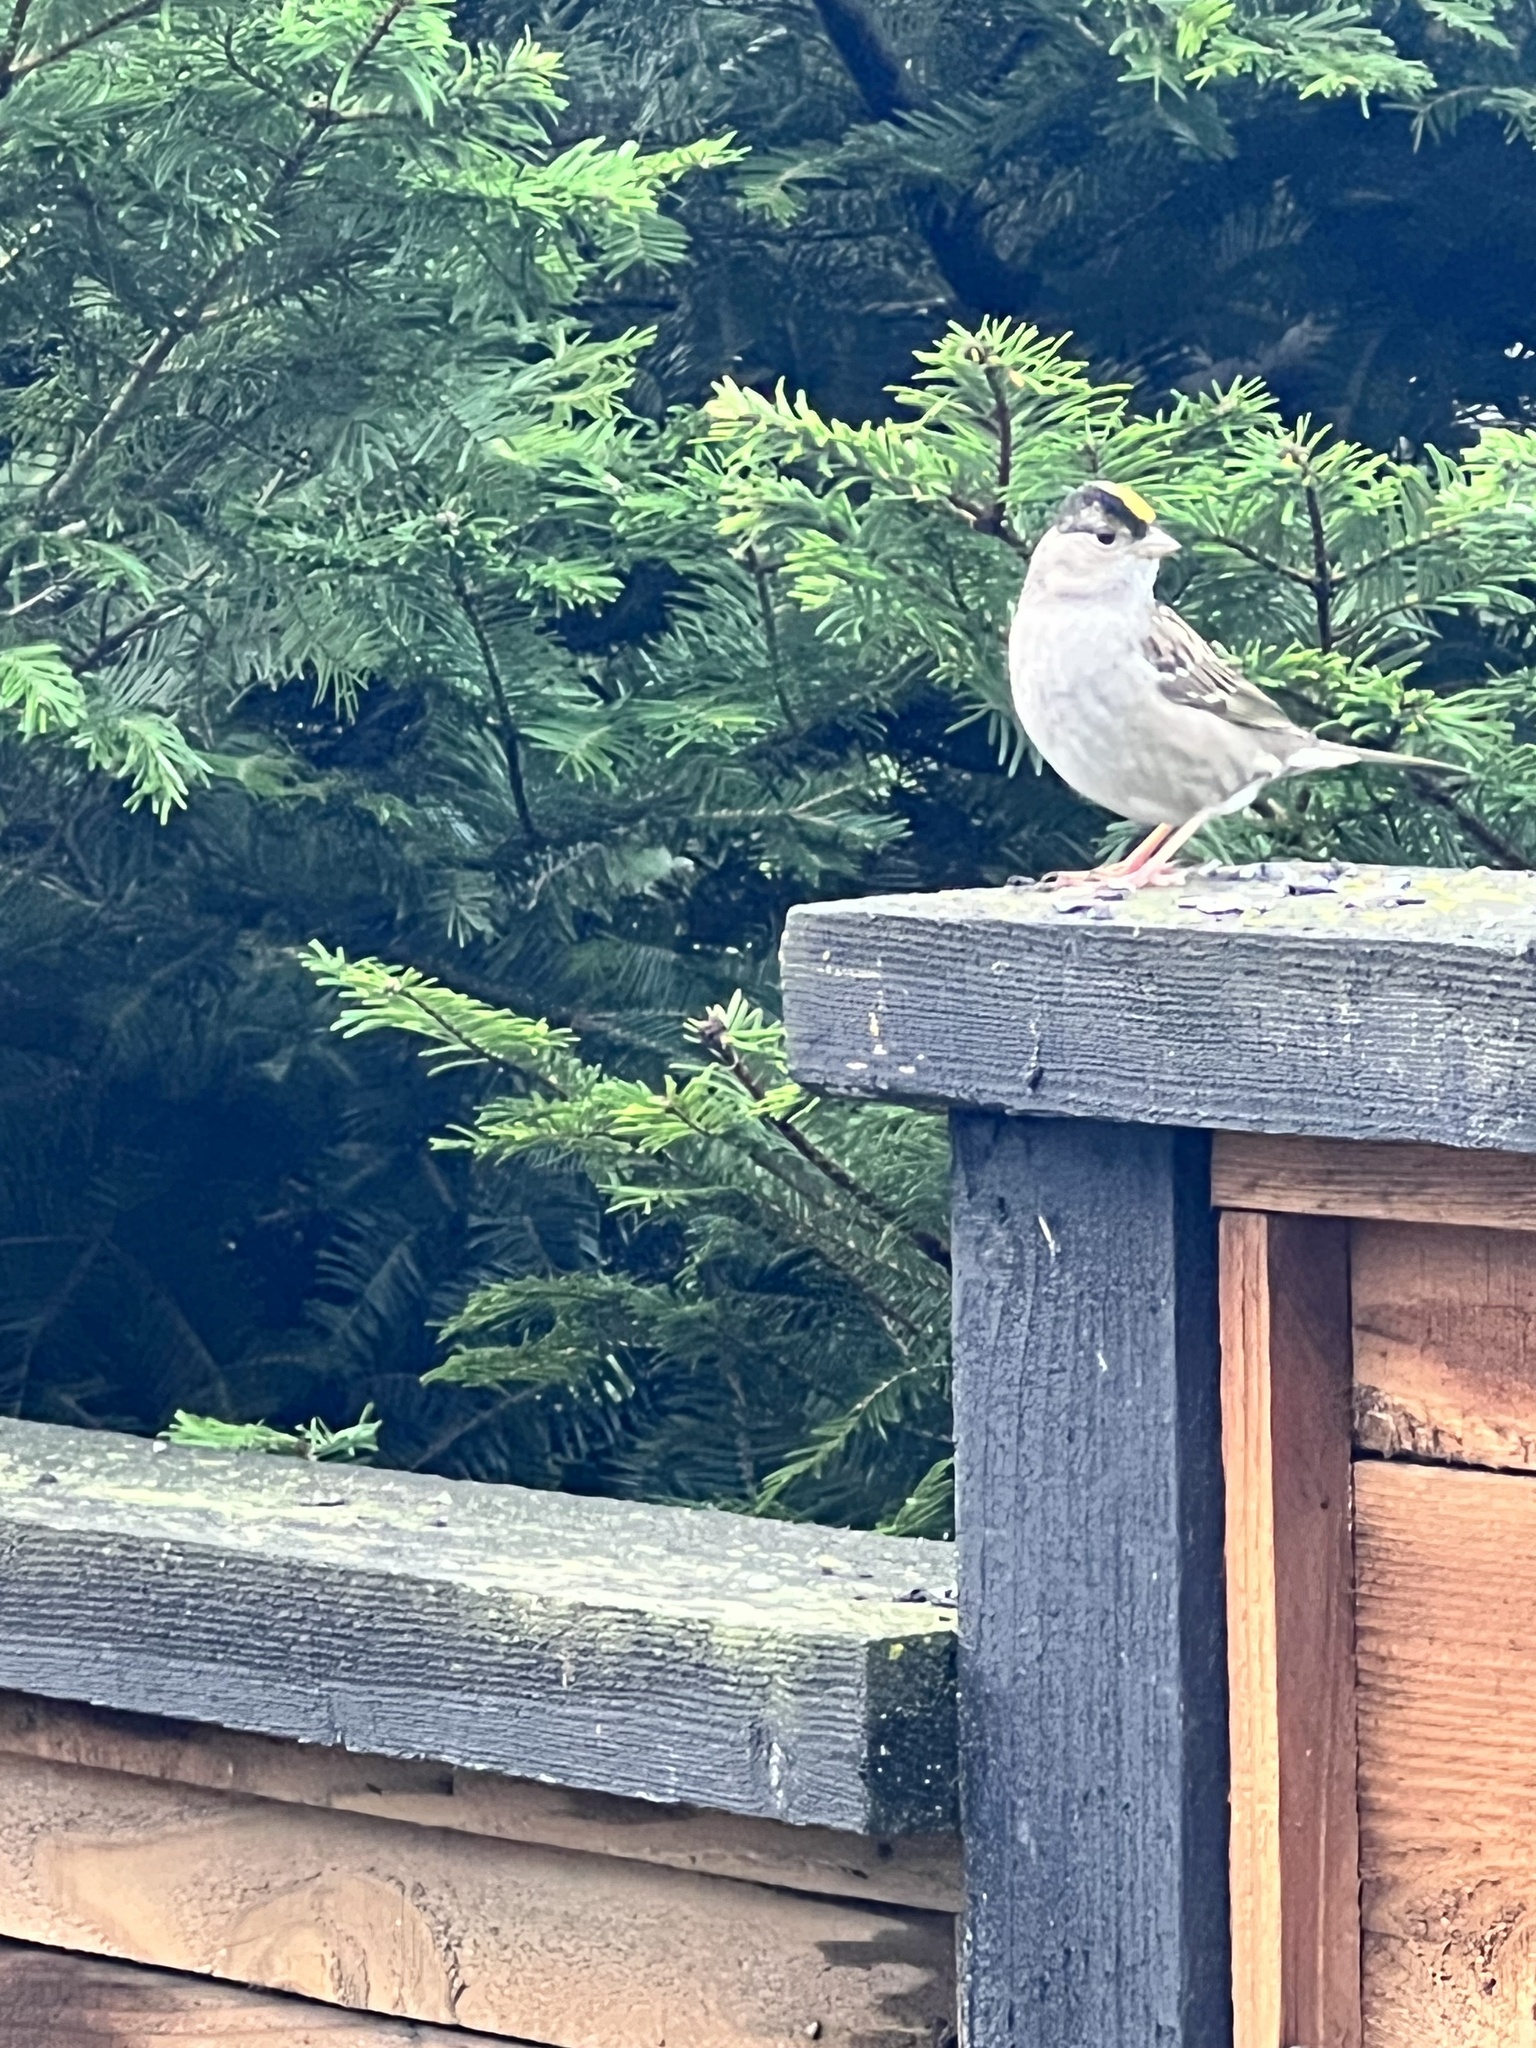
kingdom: Animalia
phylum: Chordata
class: Aves
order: Passeriformes
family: Passerellidae
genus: Zonotrichia
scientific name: Zonotrichia atricapilla
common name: Golden-crowned sparrow
